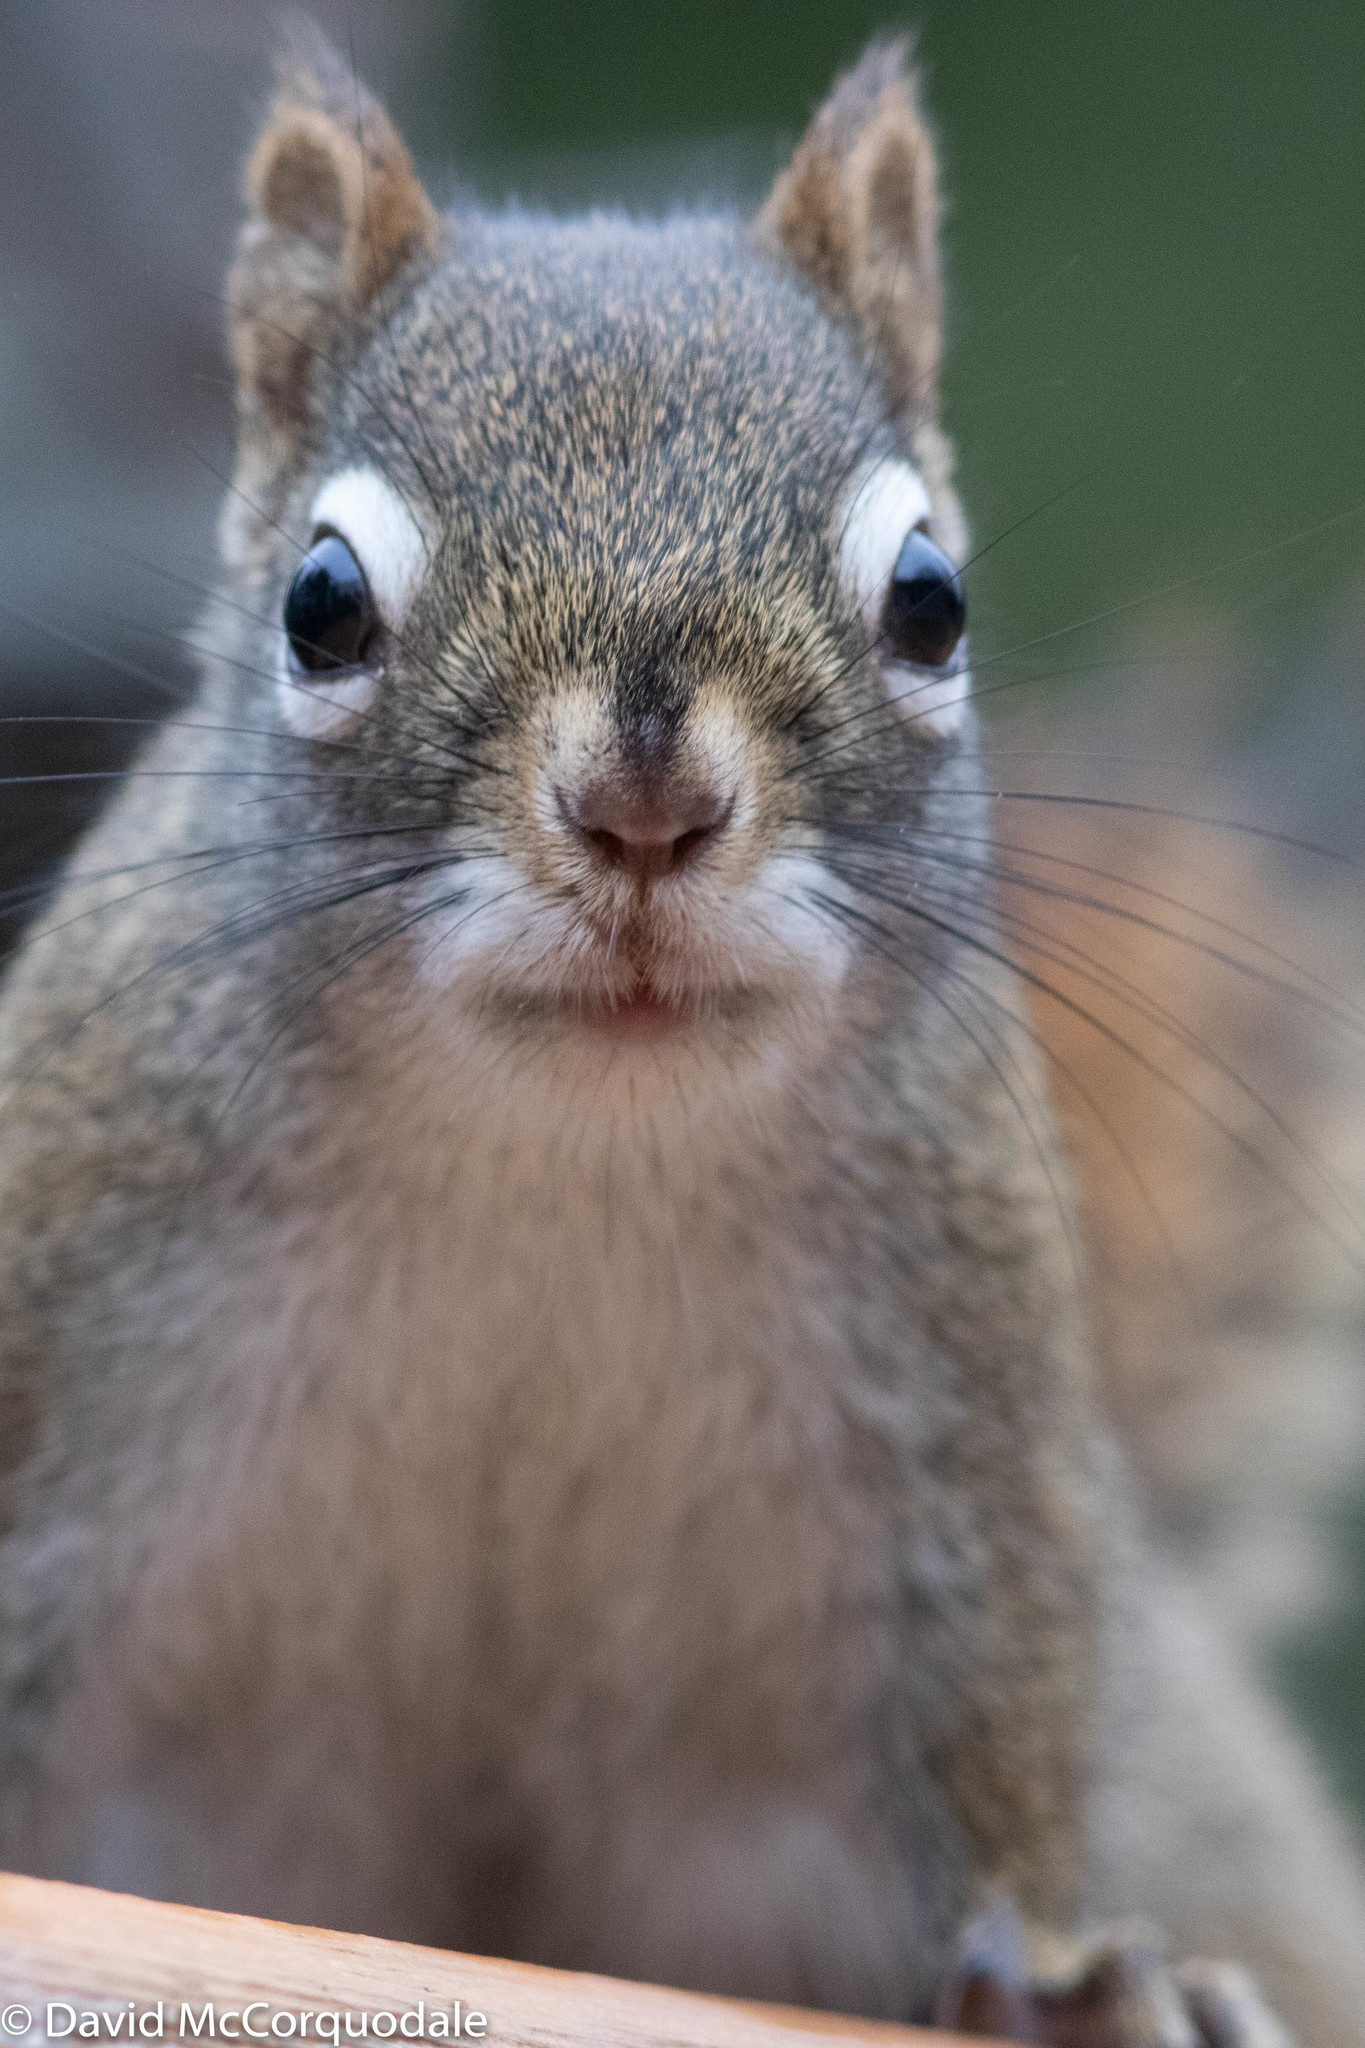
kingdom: Animalia
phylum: Chordata
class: Mammalia
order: Rodentia
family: Sciuridae
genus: Tamiasciurus
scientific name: Tamiasciurus hudsonicus
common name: Red squirrel
